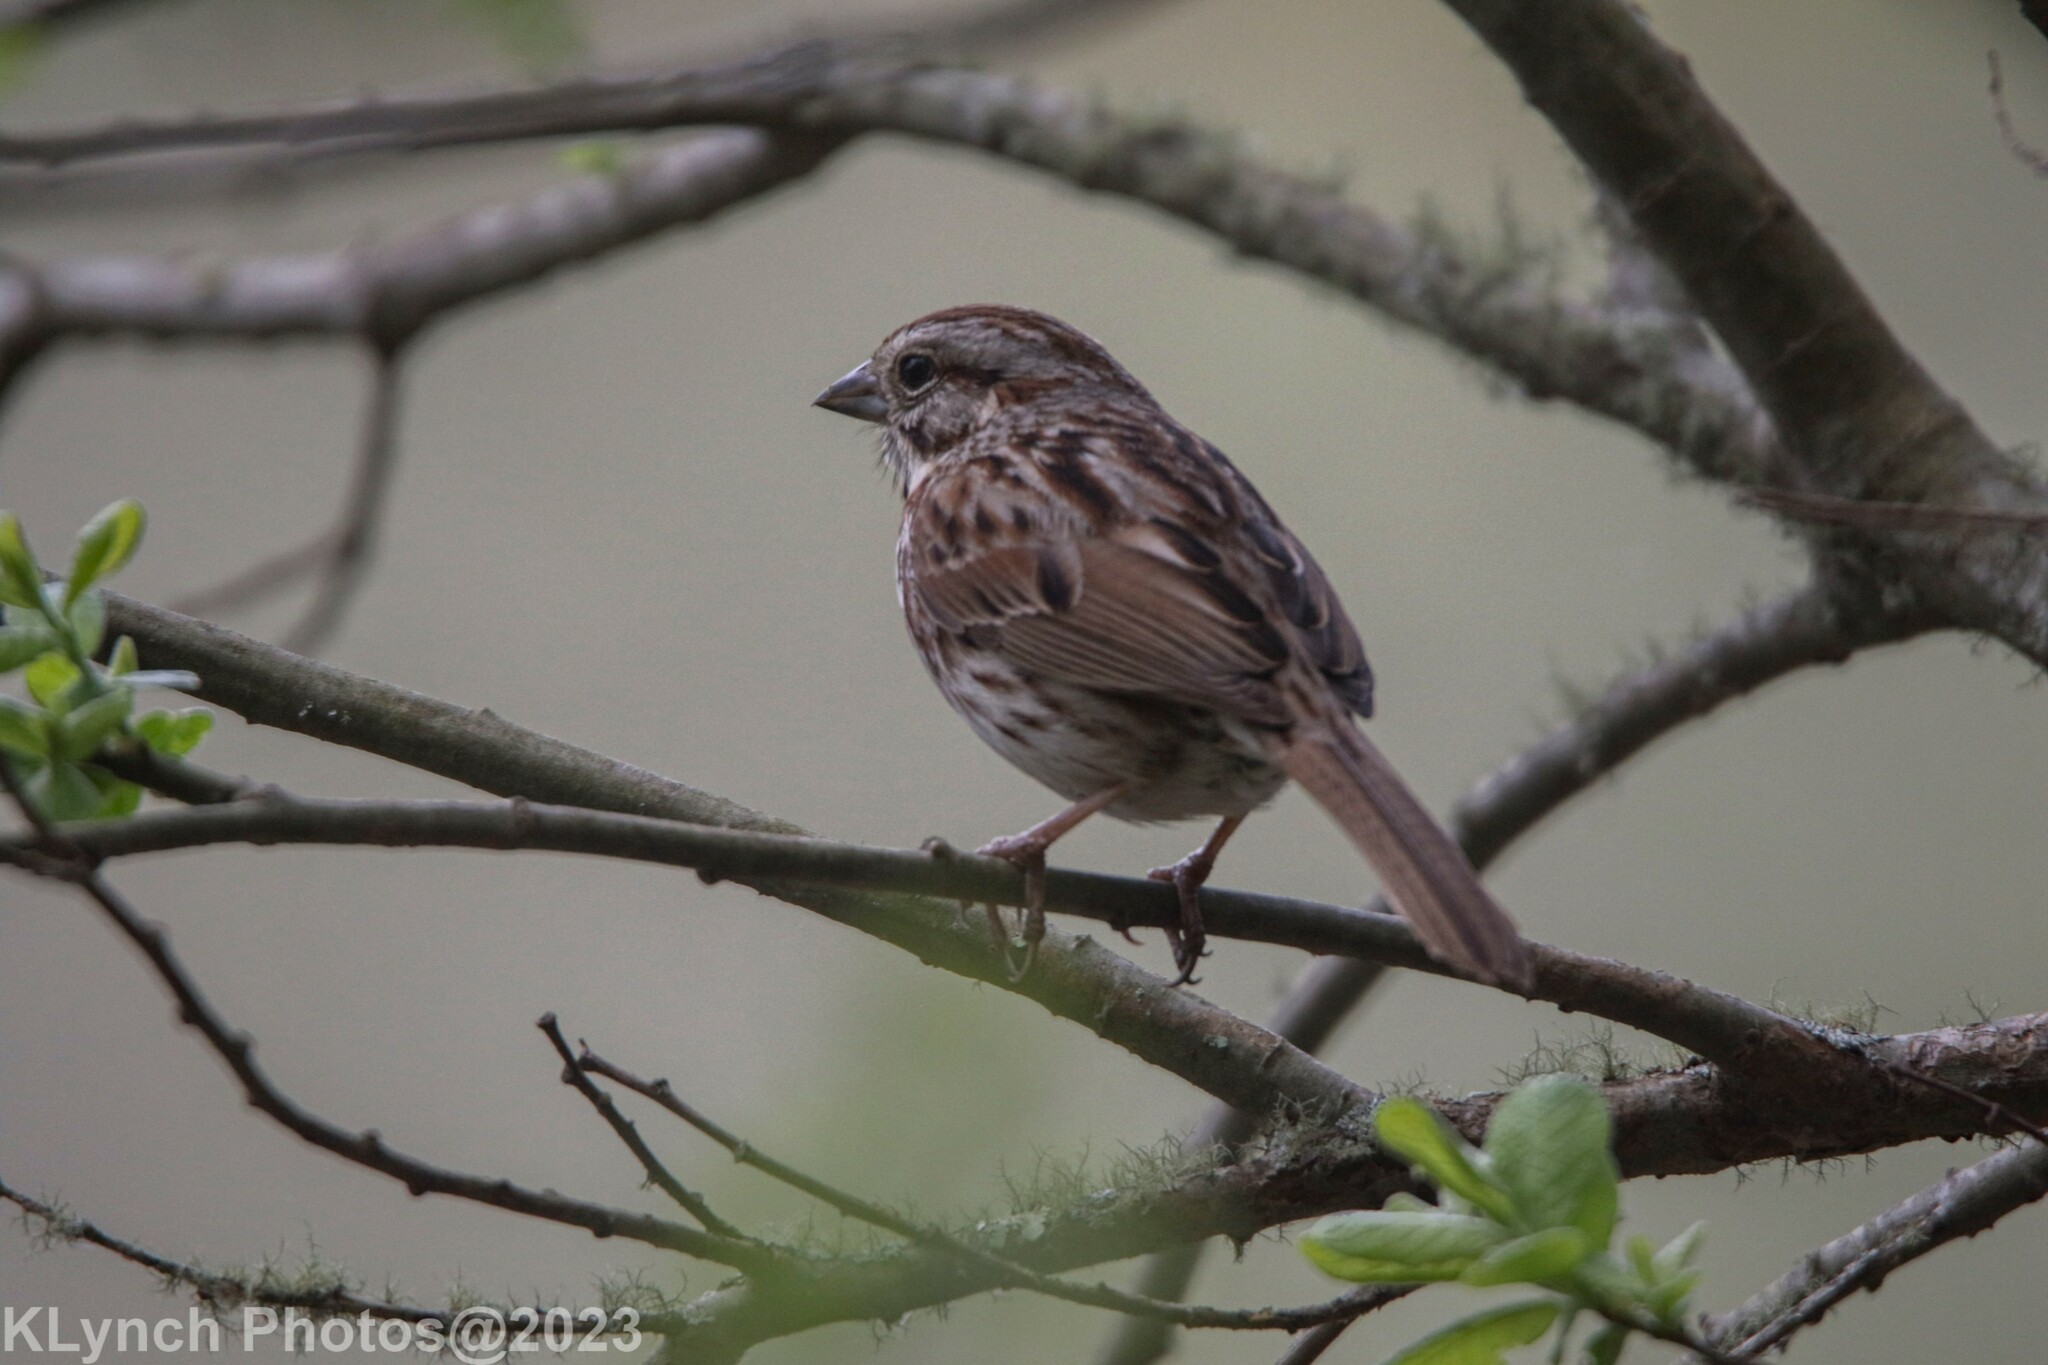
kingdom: Animalia
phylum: Chordata
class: Aves
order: Passeriformes
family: Passerellidae
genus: Melospiza
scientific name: Melospiza melodia
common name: Song sparrow
